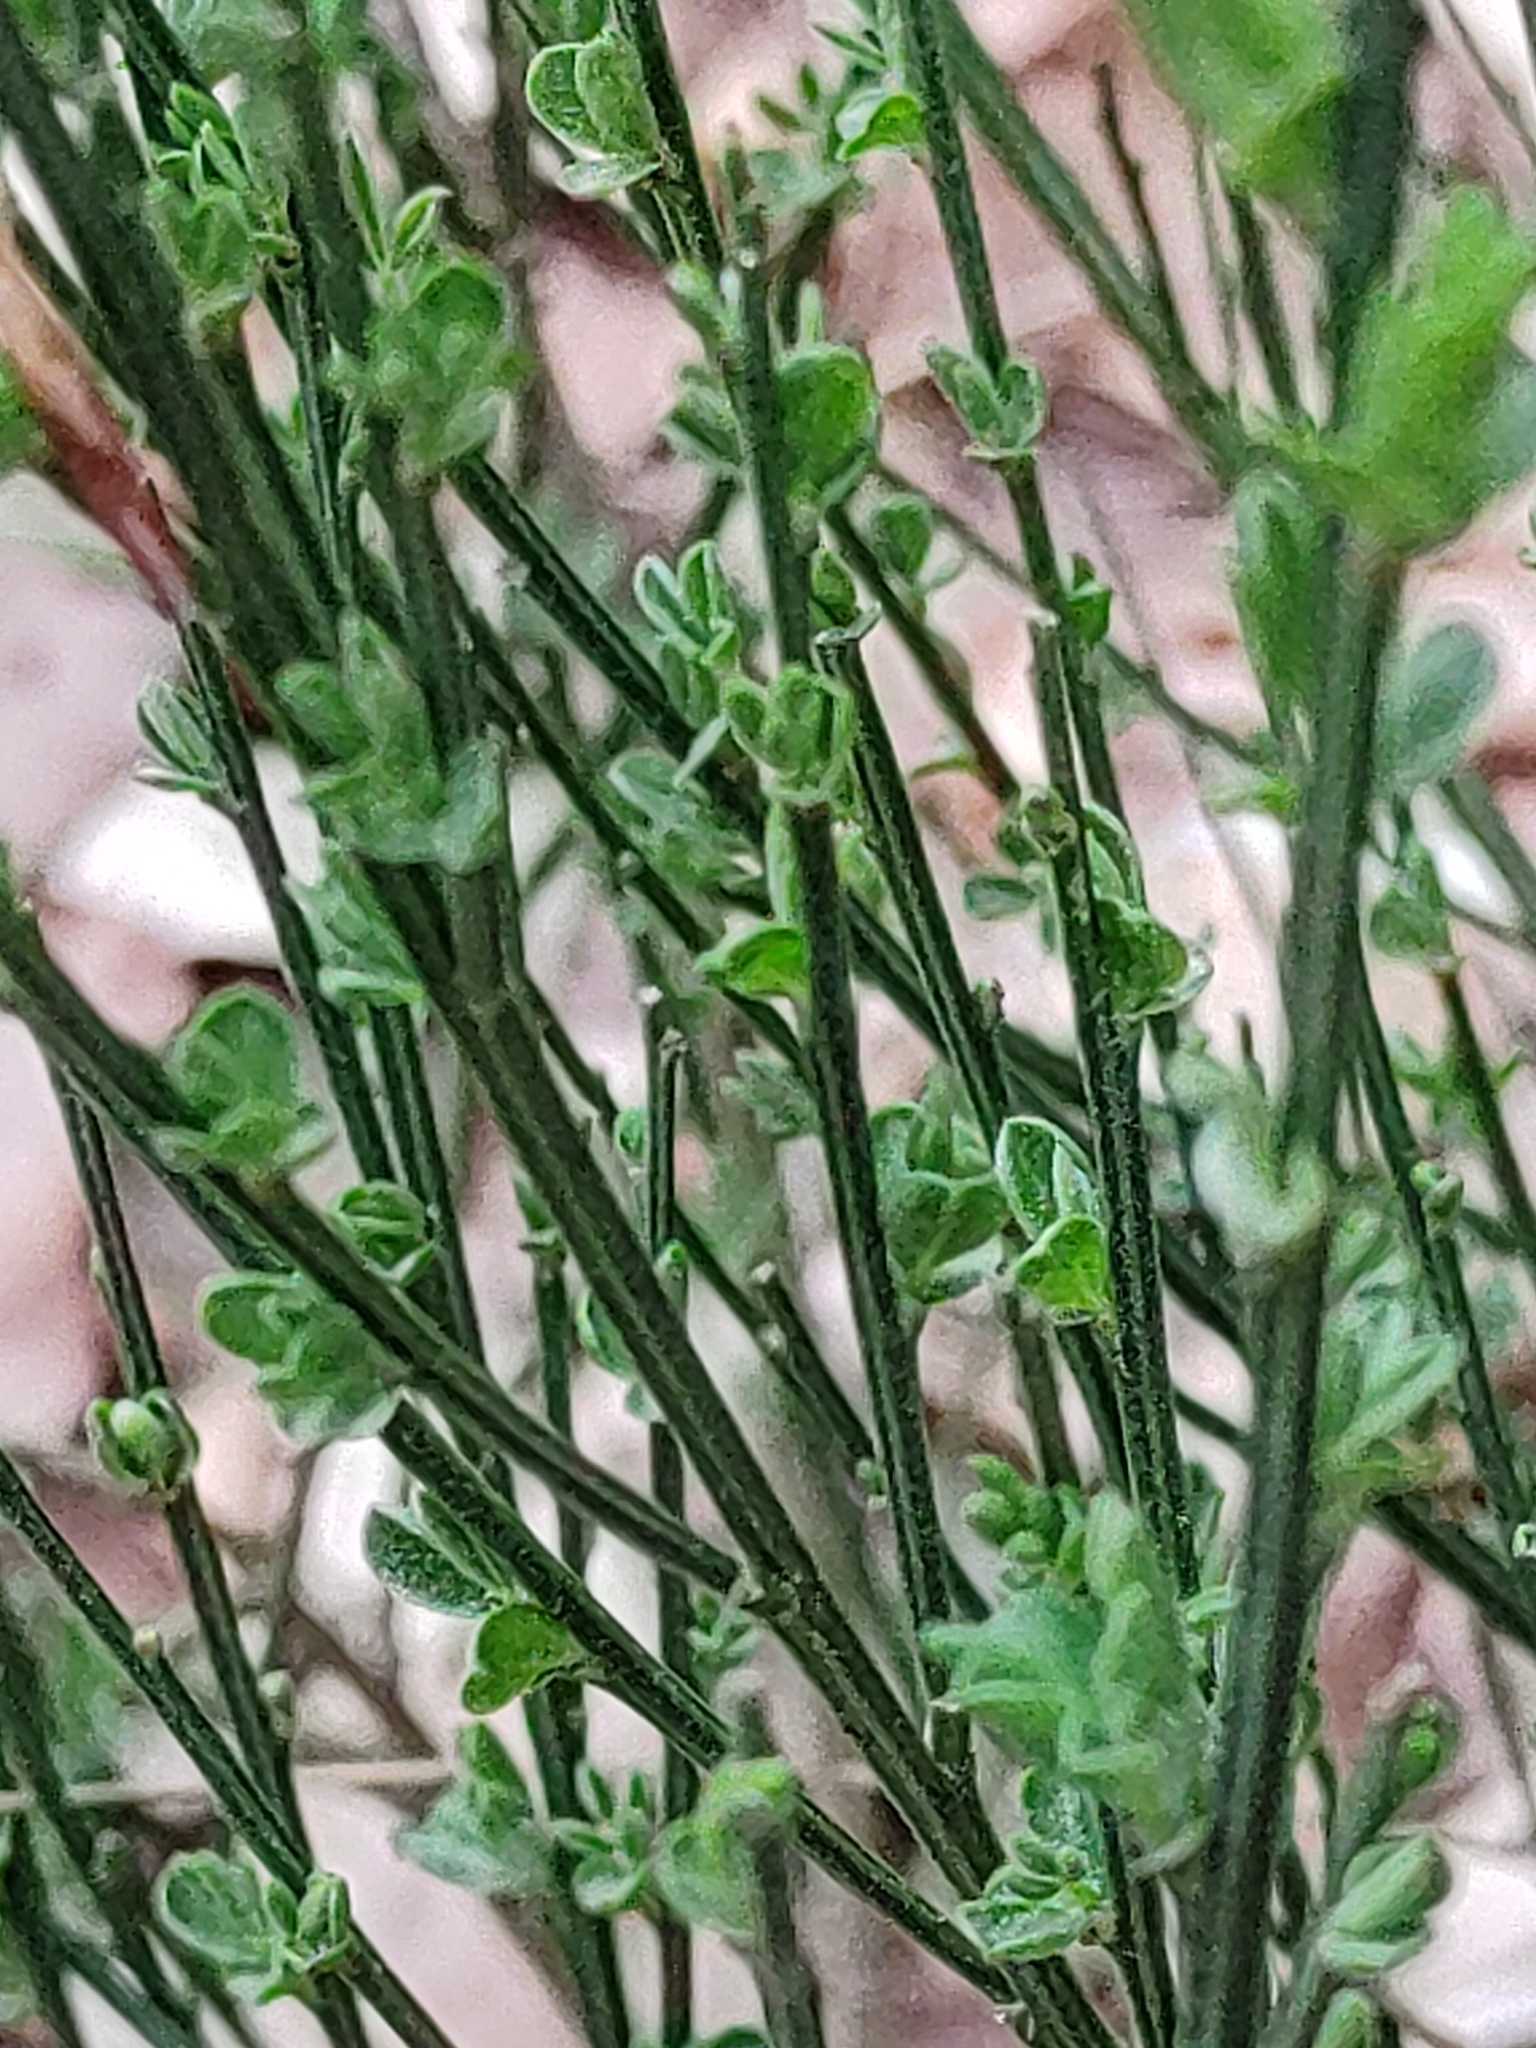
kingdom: Plantae
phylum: Tracheophyta
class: Magnoliopsida
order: Fabales
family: Fabaceae
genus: Cytisus
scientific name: Cytisus scoparius
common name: Scotch broom
